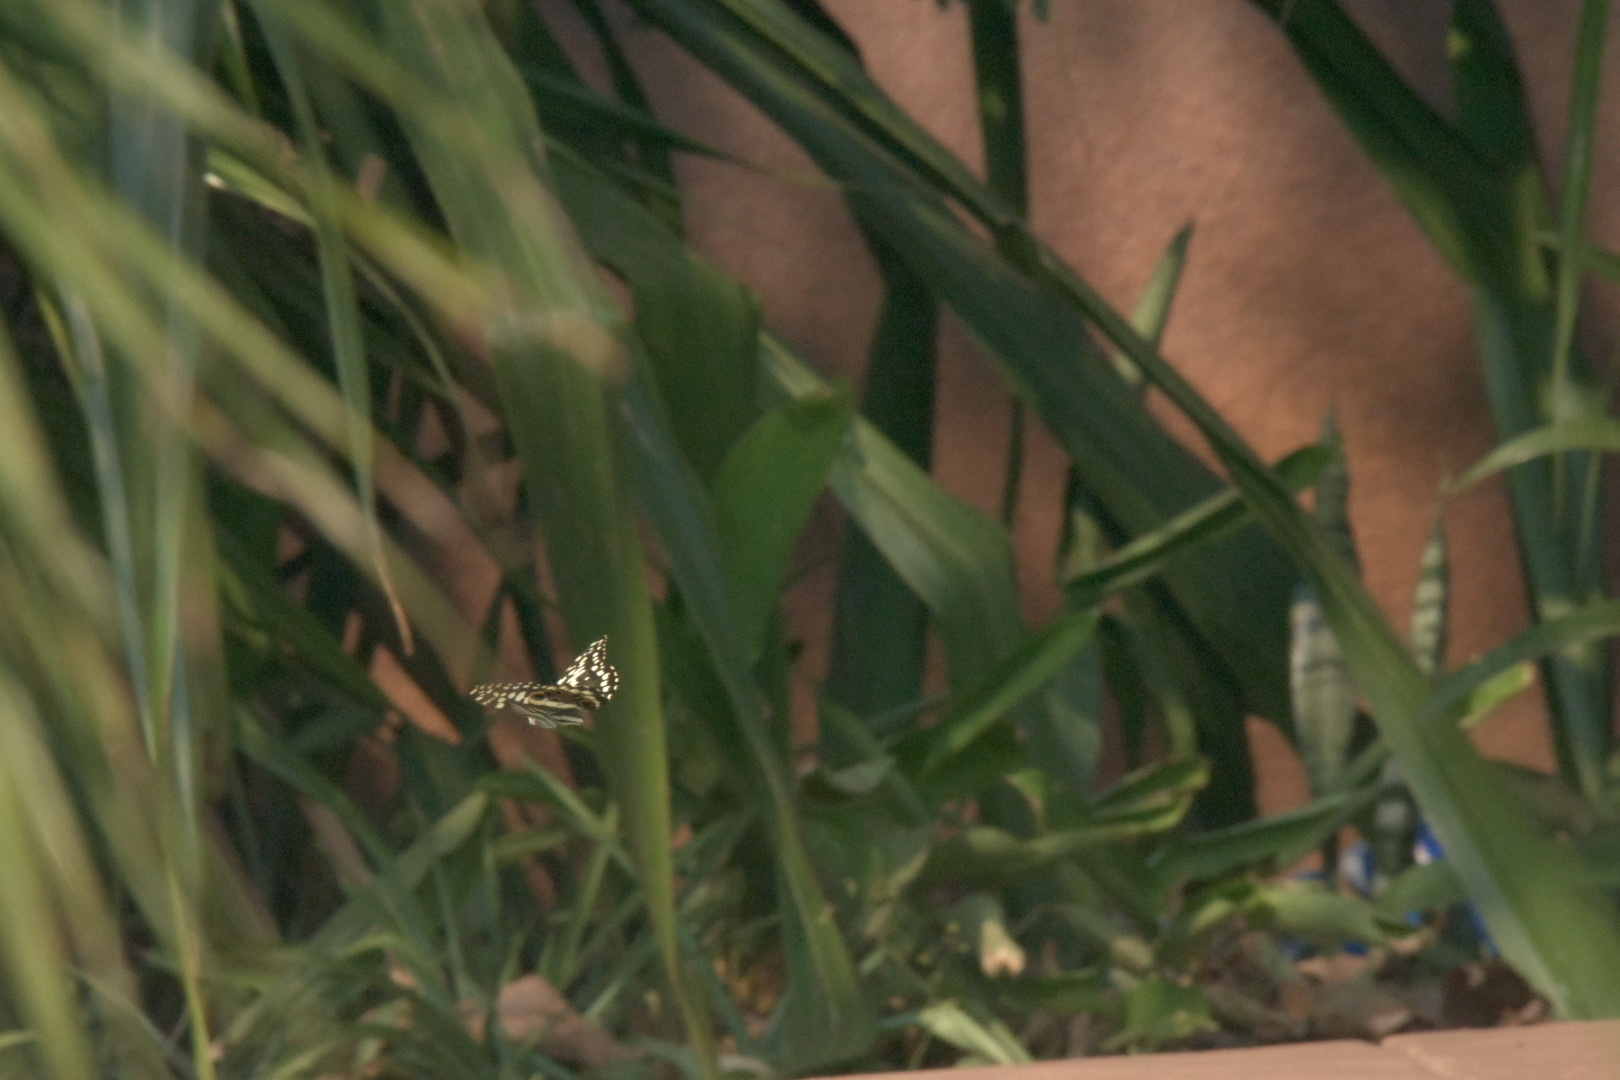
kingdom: Animalia
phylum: Arthropoda
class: Insecta
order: Lepidoptera
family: Papilionidae
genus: Papilio
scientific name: Papilio demodocus
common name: Christmas butterfly
